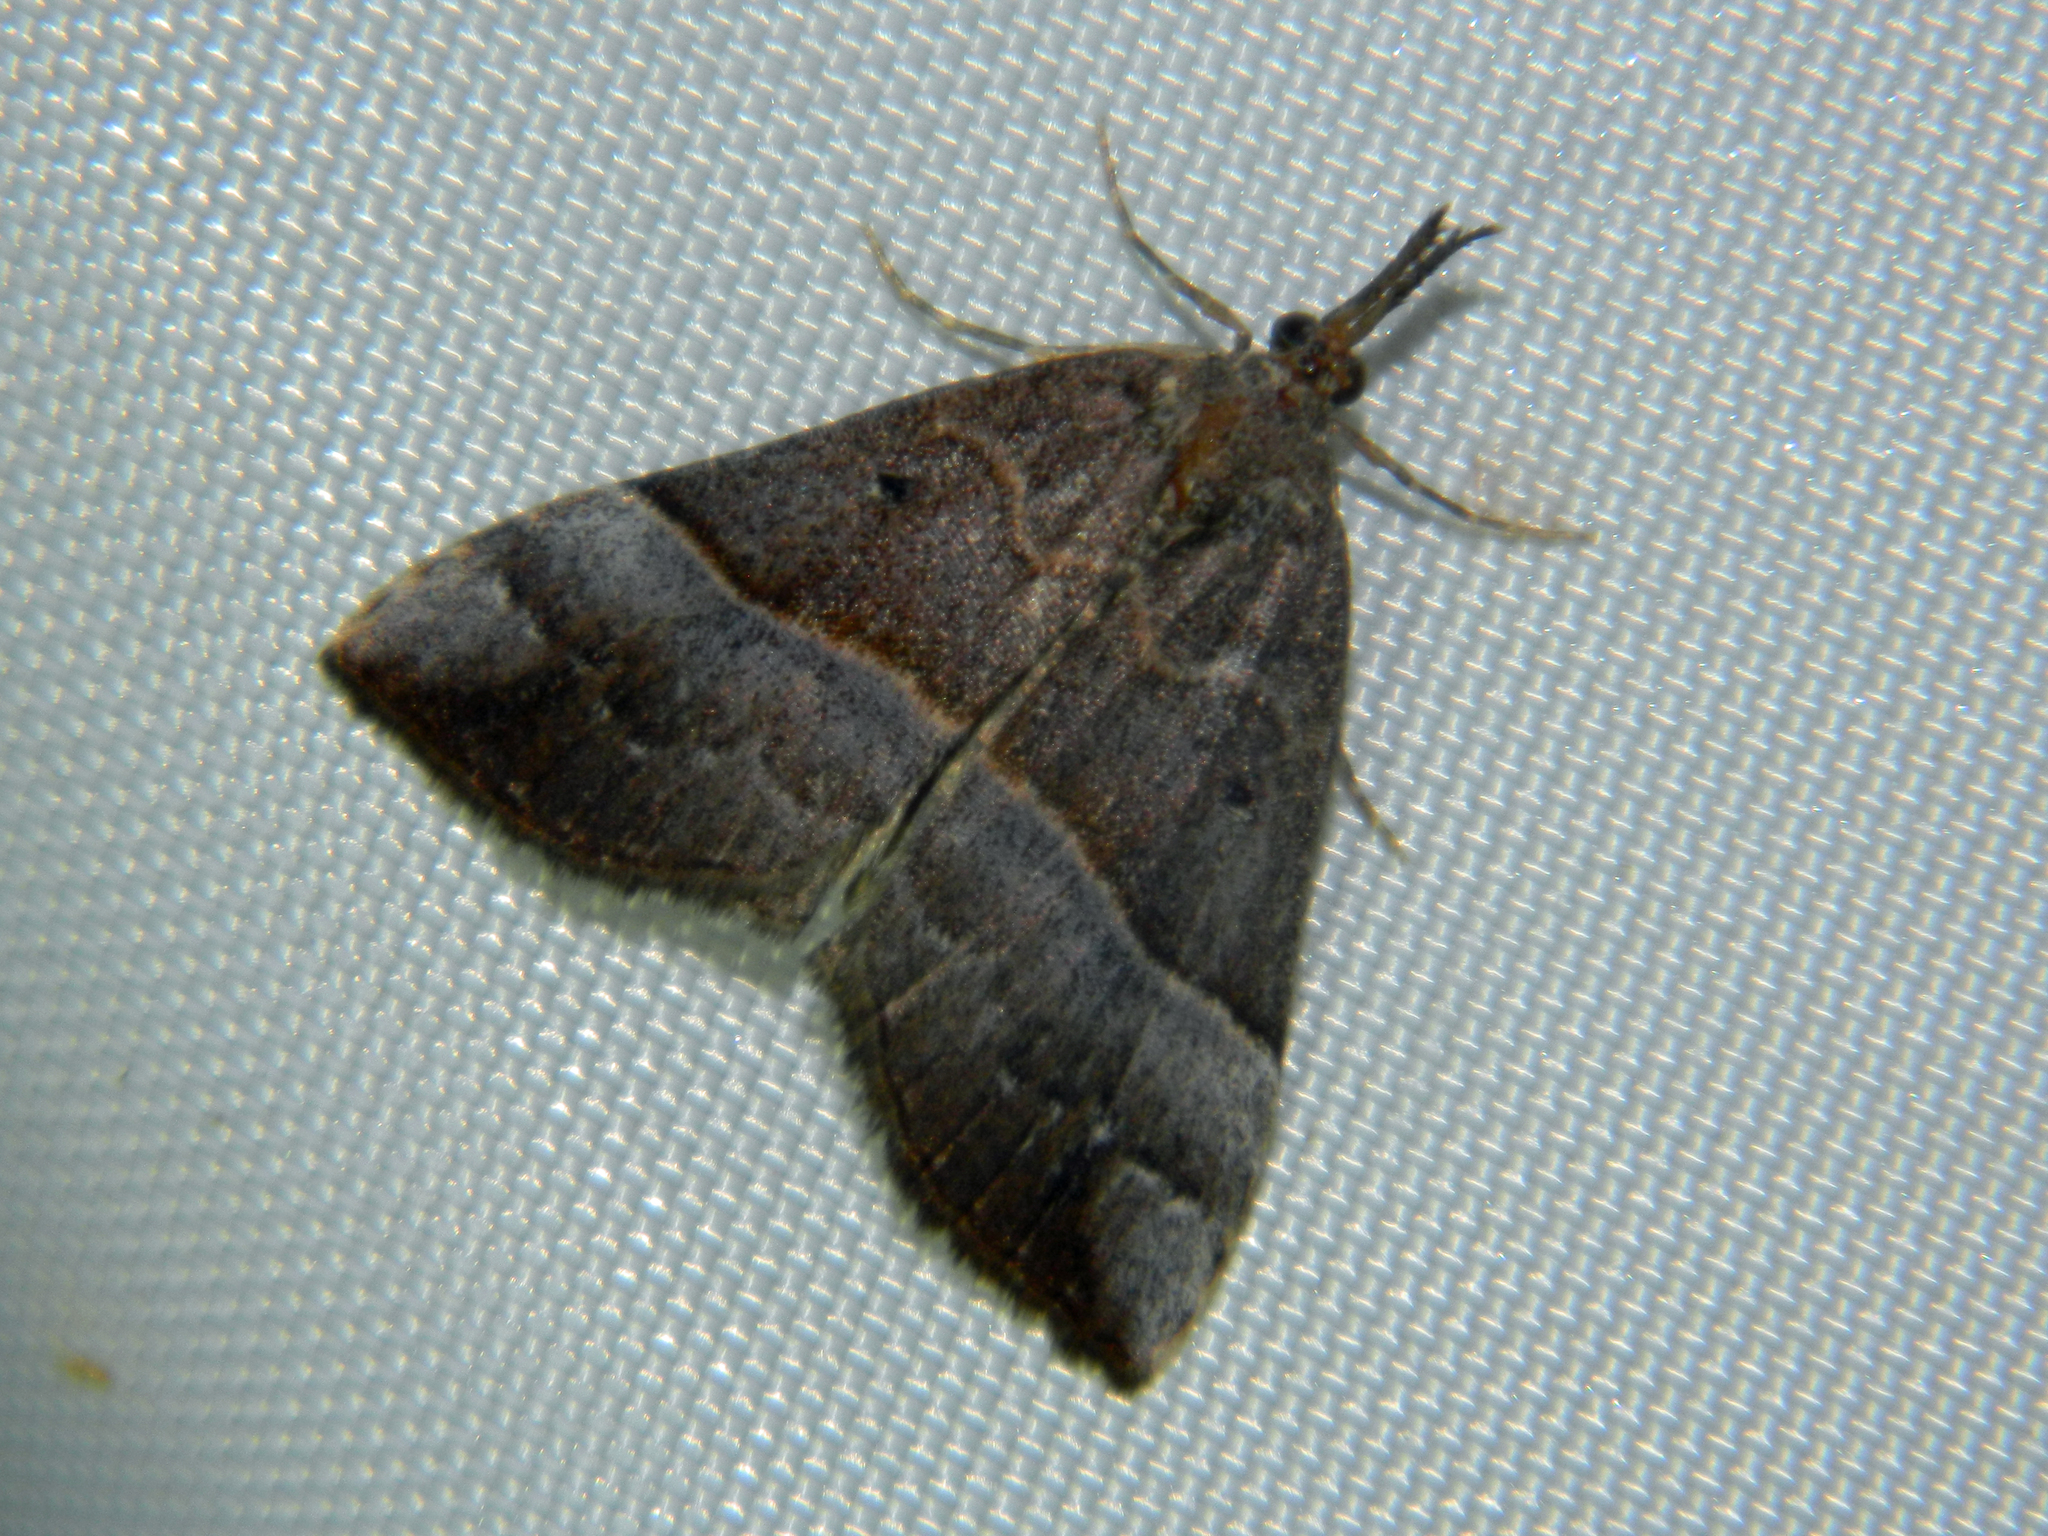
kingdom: Animalia
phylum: Arthropoda
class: Insecta
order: Lepidoptera
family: Erebidae
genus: Hypena
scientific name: Hypena eductalis
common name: Red-footed snout
